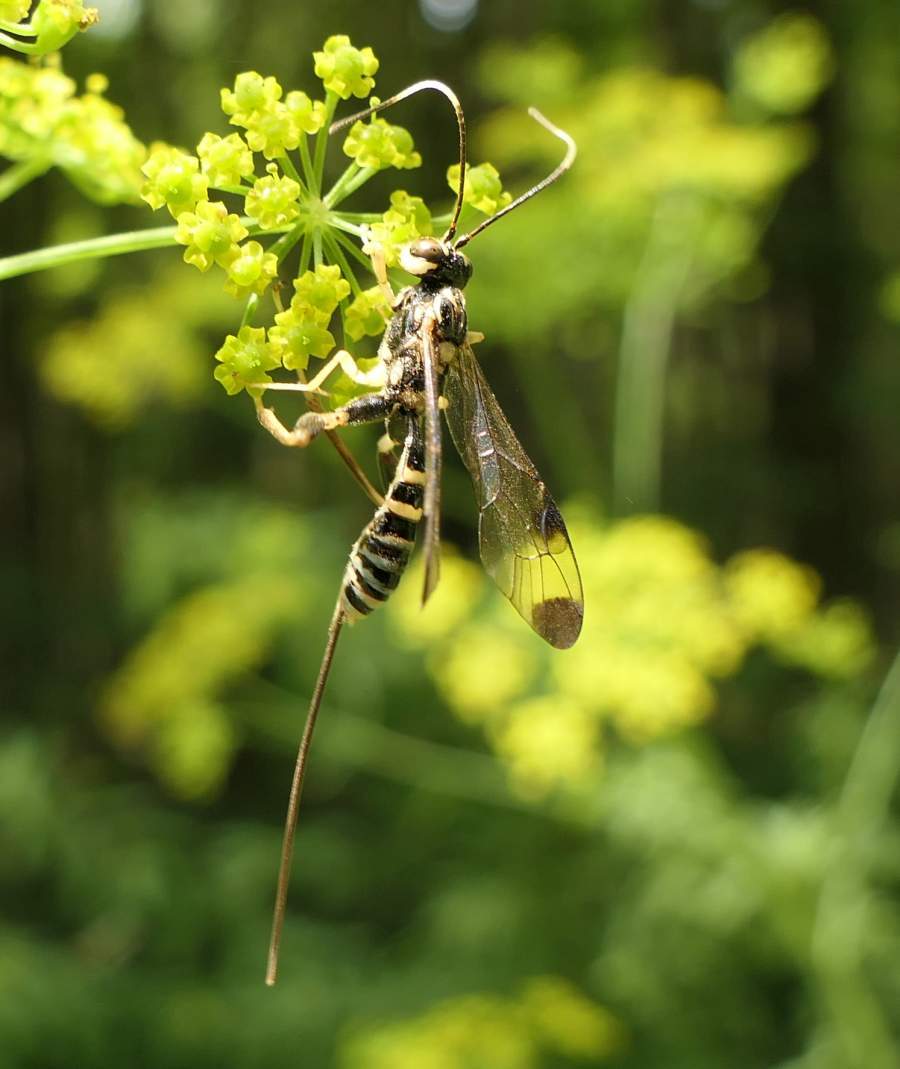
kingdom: Animalia
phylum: Arthropoda
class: Insecta
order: Hymenoptera
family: Ichneumonidae
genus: Spilopteron
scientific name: Spilopteron formosum
